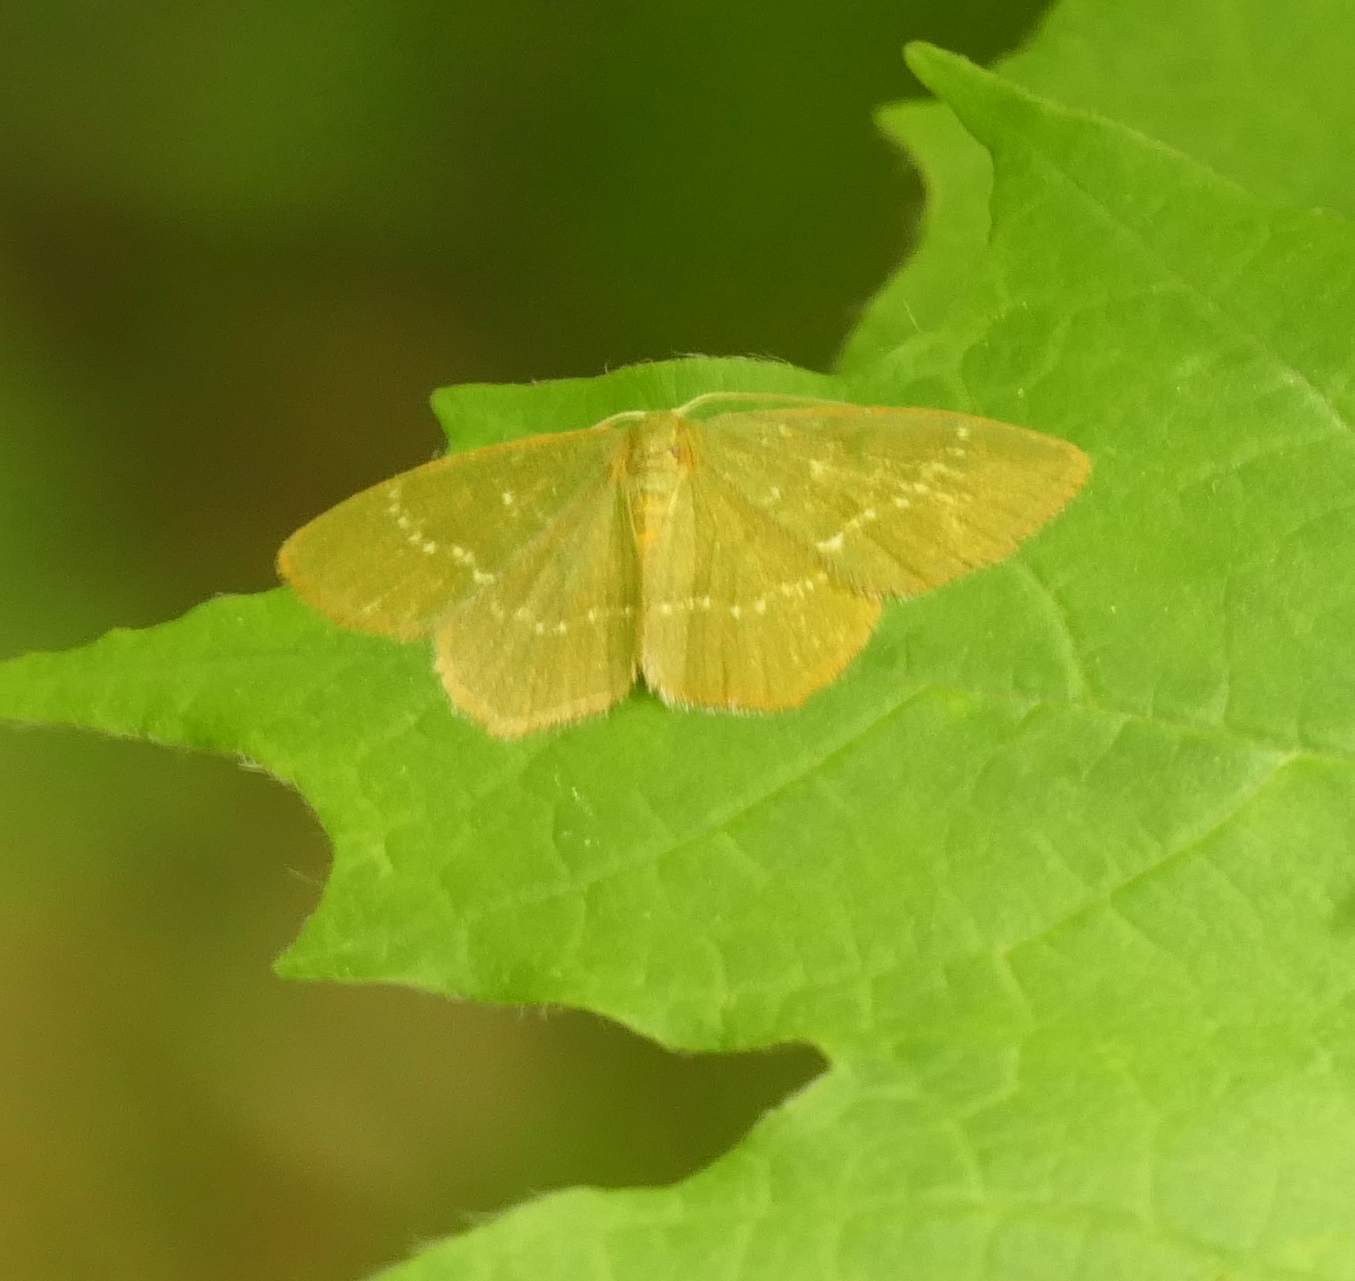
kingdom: Animalia
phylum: Arthropoda
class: Insecta
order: Lepidoptera
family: Geometridae
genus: Thalera
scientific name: Thalera pistasciaria
